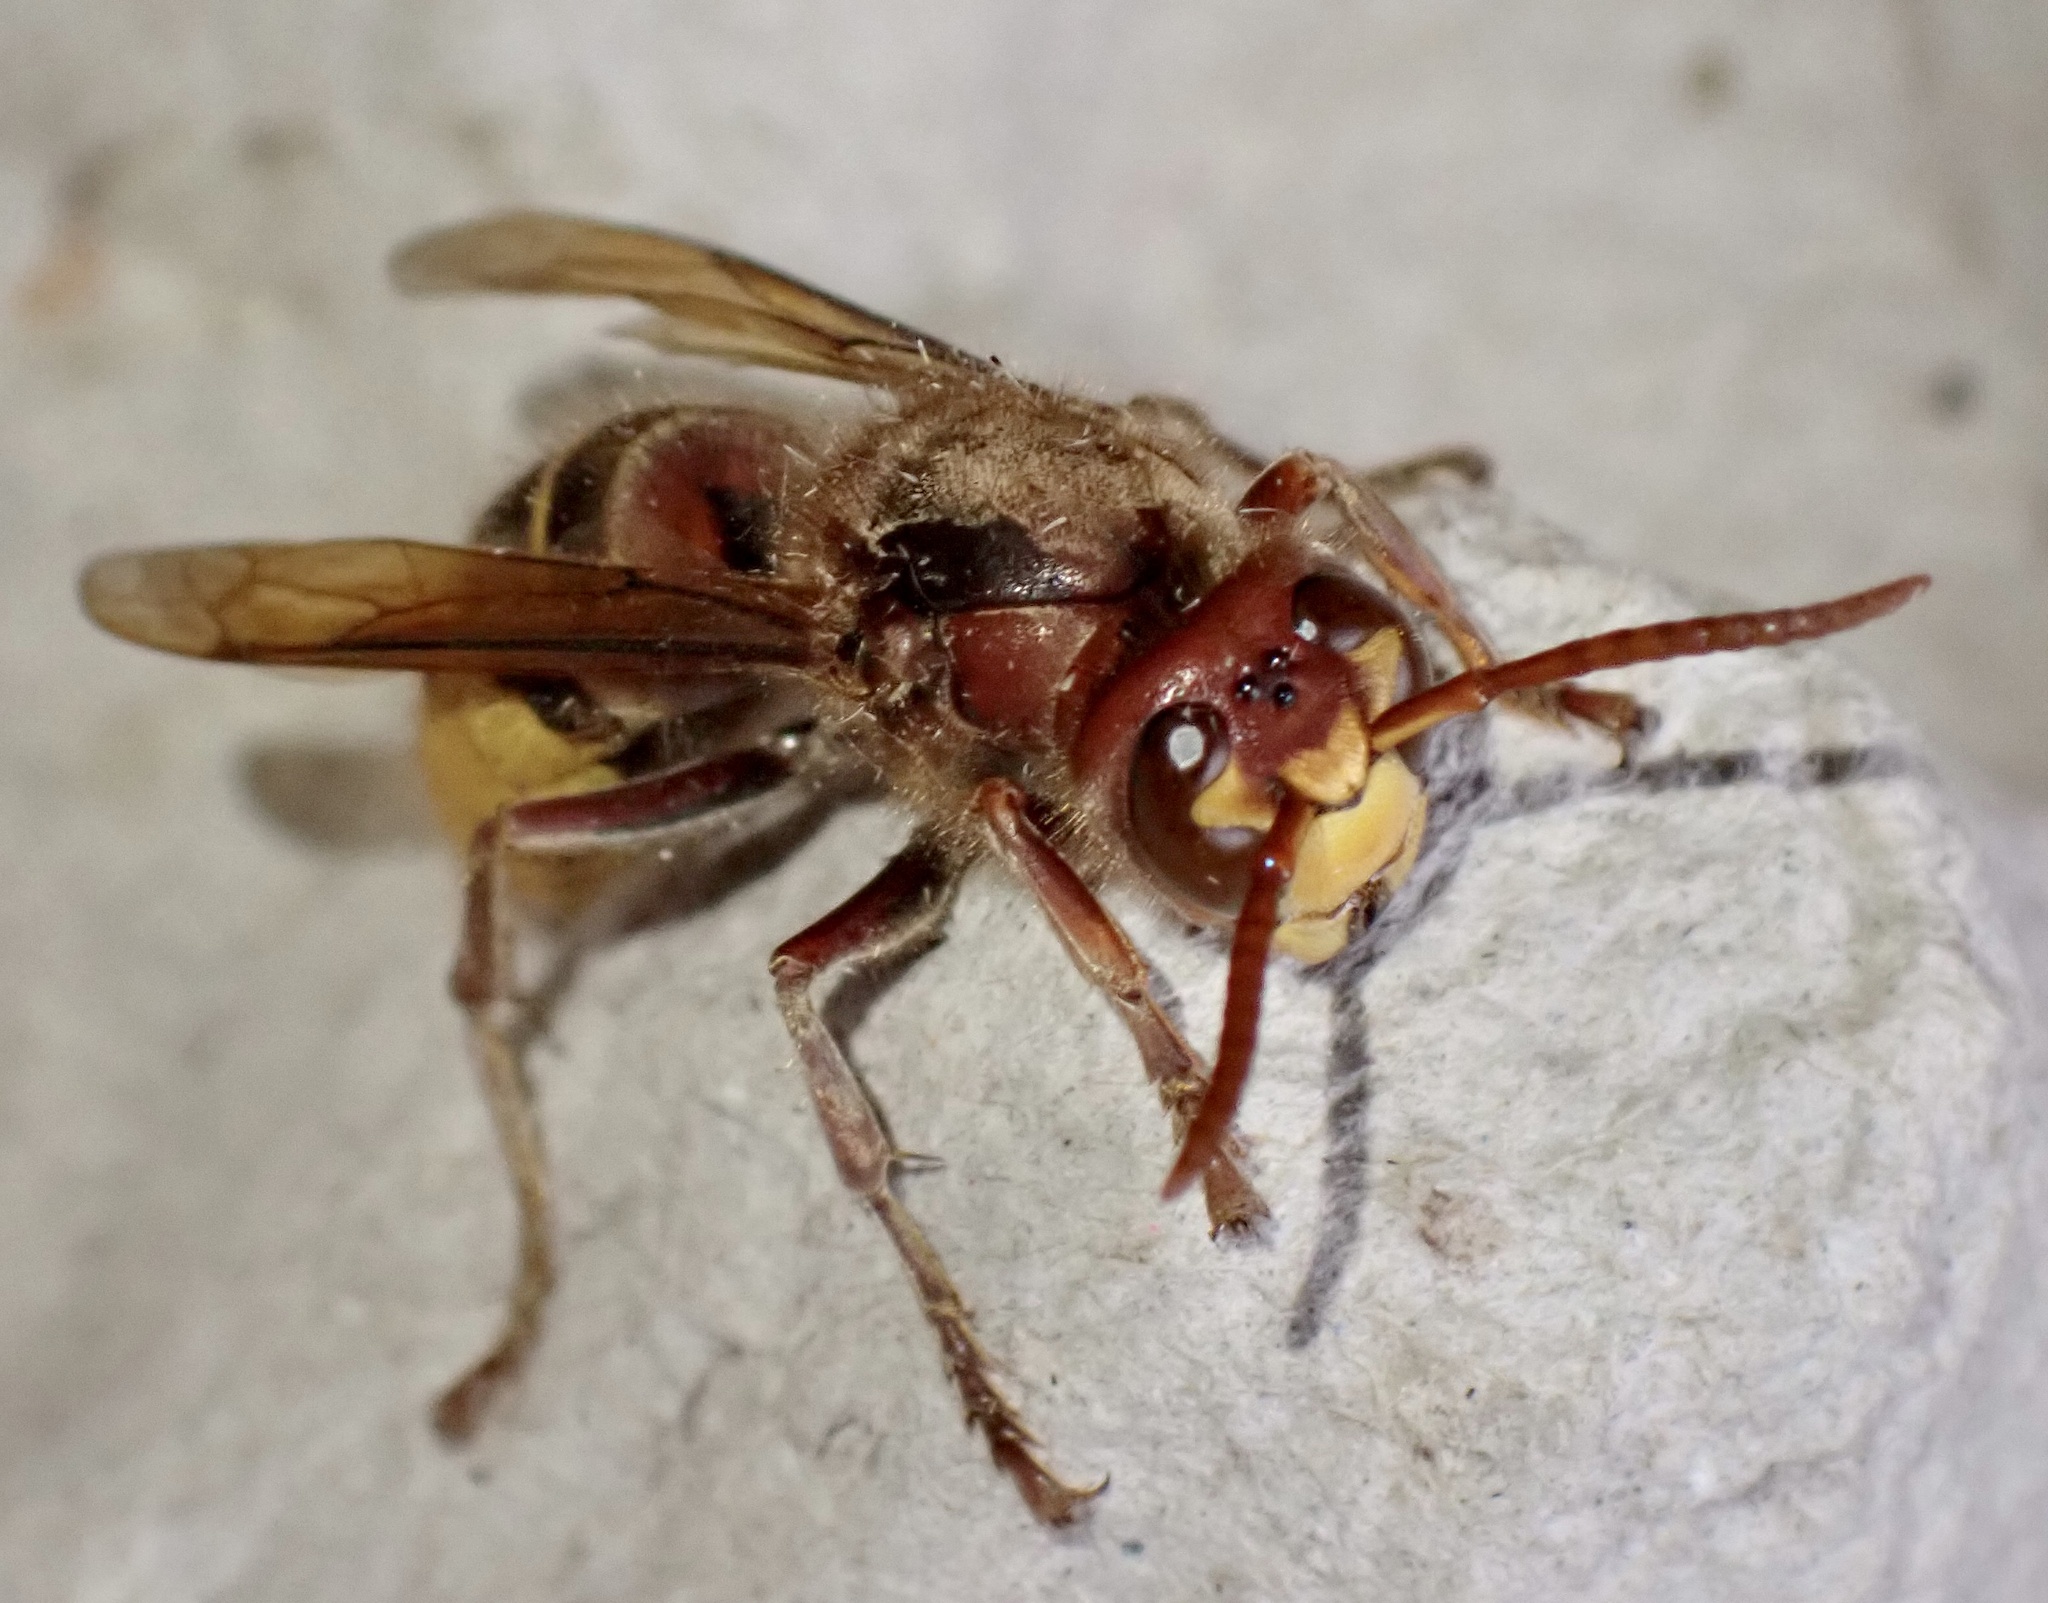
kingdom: Animalia
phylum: Arthropoda
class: Insecta
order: Hymenoptera
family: Vespidae
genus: Vespa
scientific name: Vespa crabro
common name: Hornet
